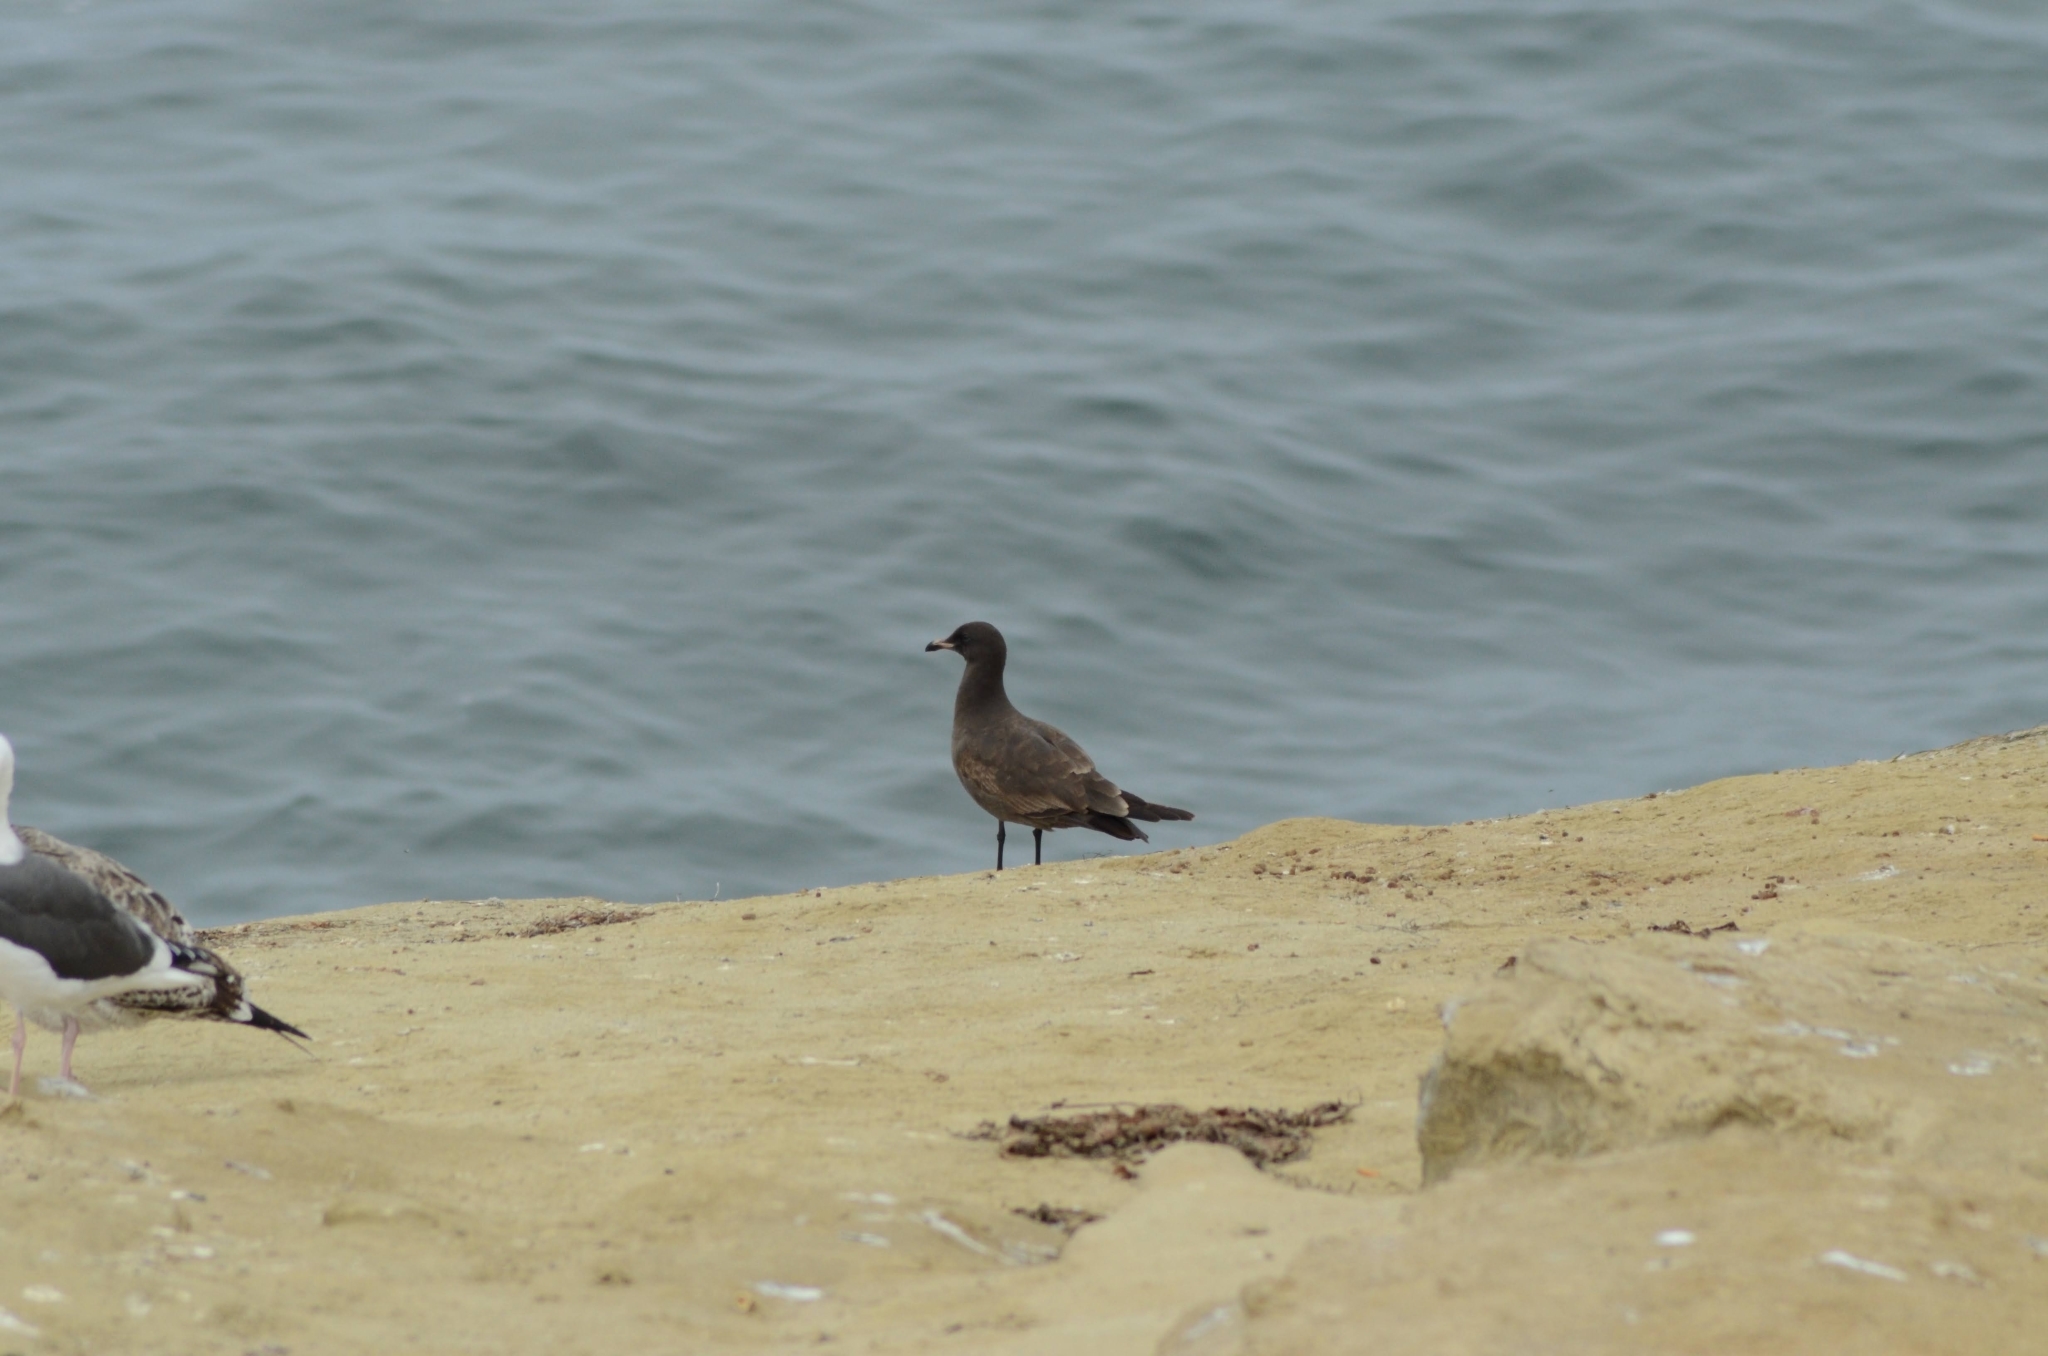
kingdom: Animalia
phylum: Chordata
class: Aves
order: Charadriiformes
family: Laridae
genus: Larus
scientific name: Larus heermanni
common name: Heermann's gull
